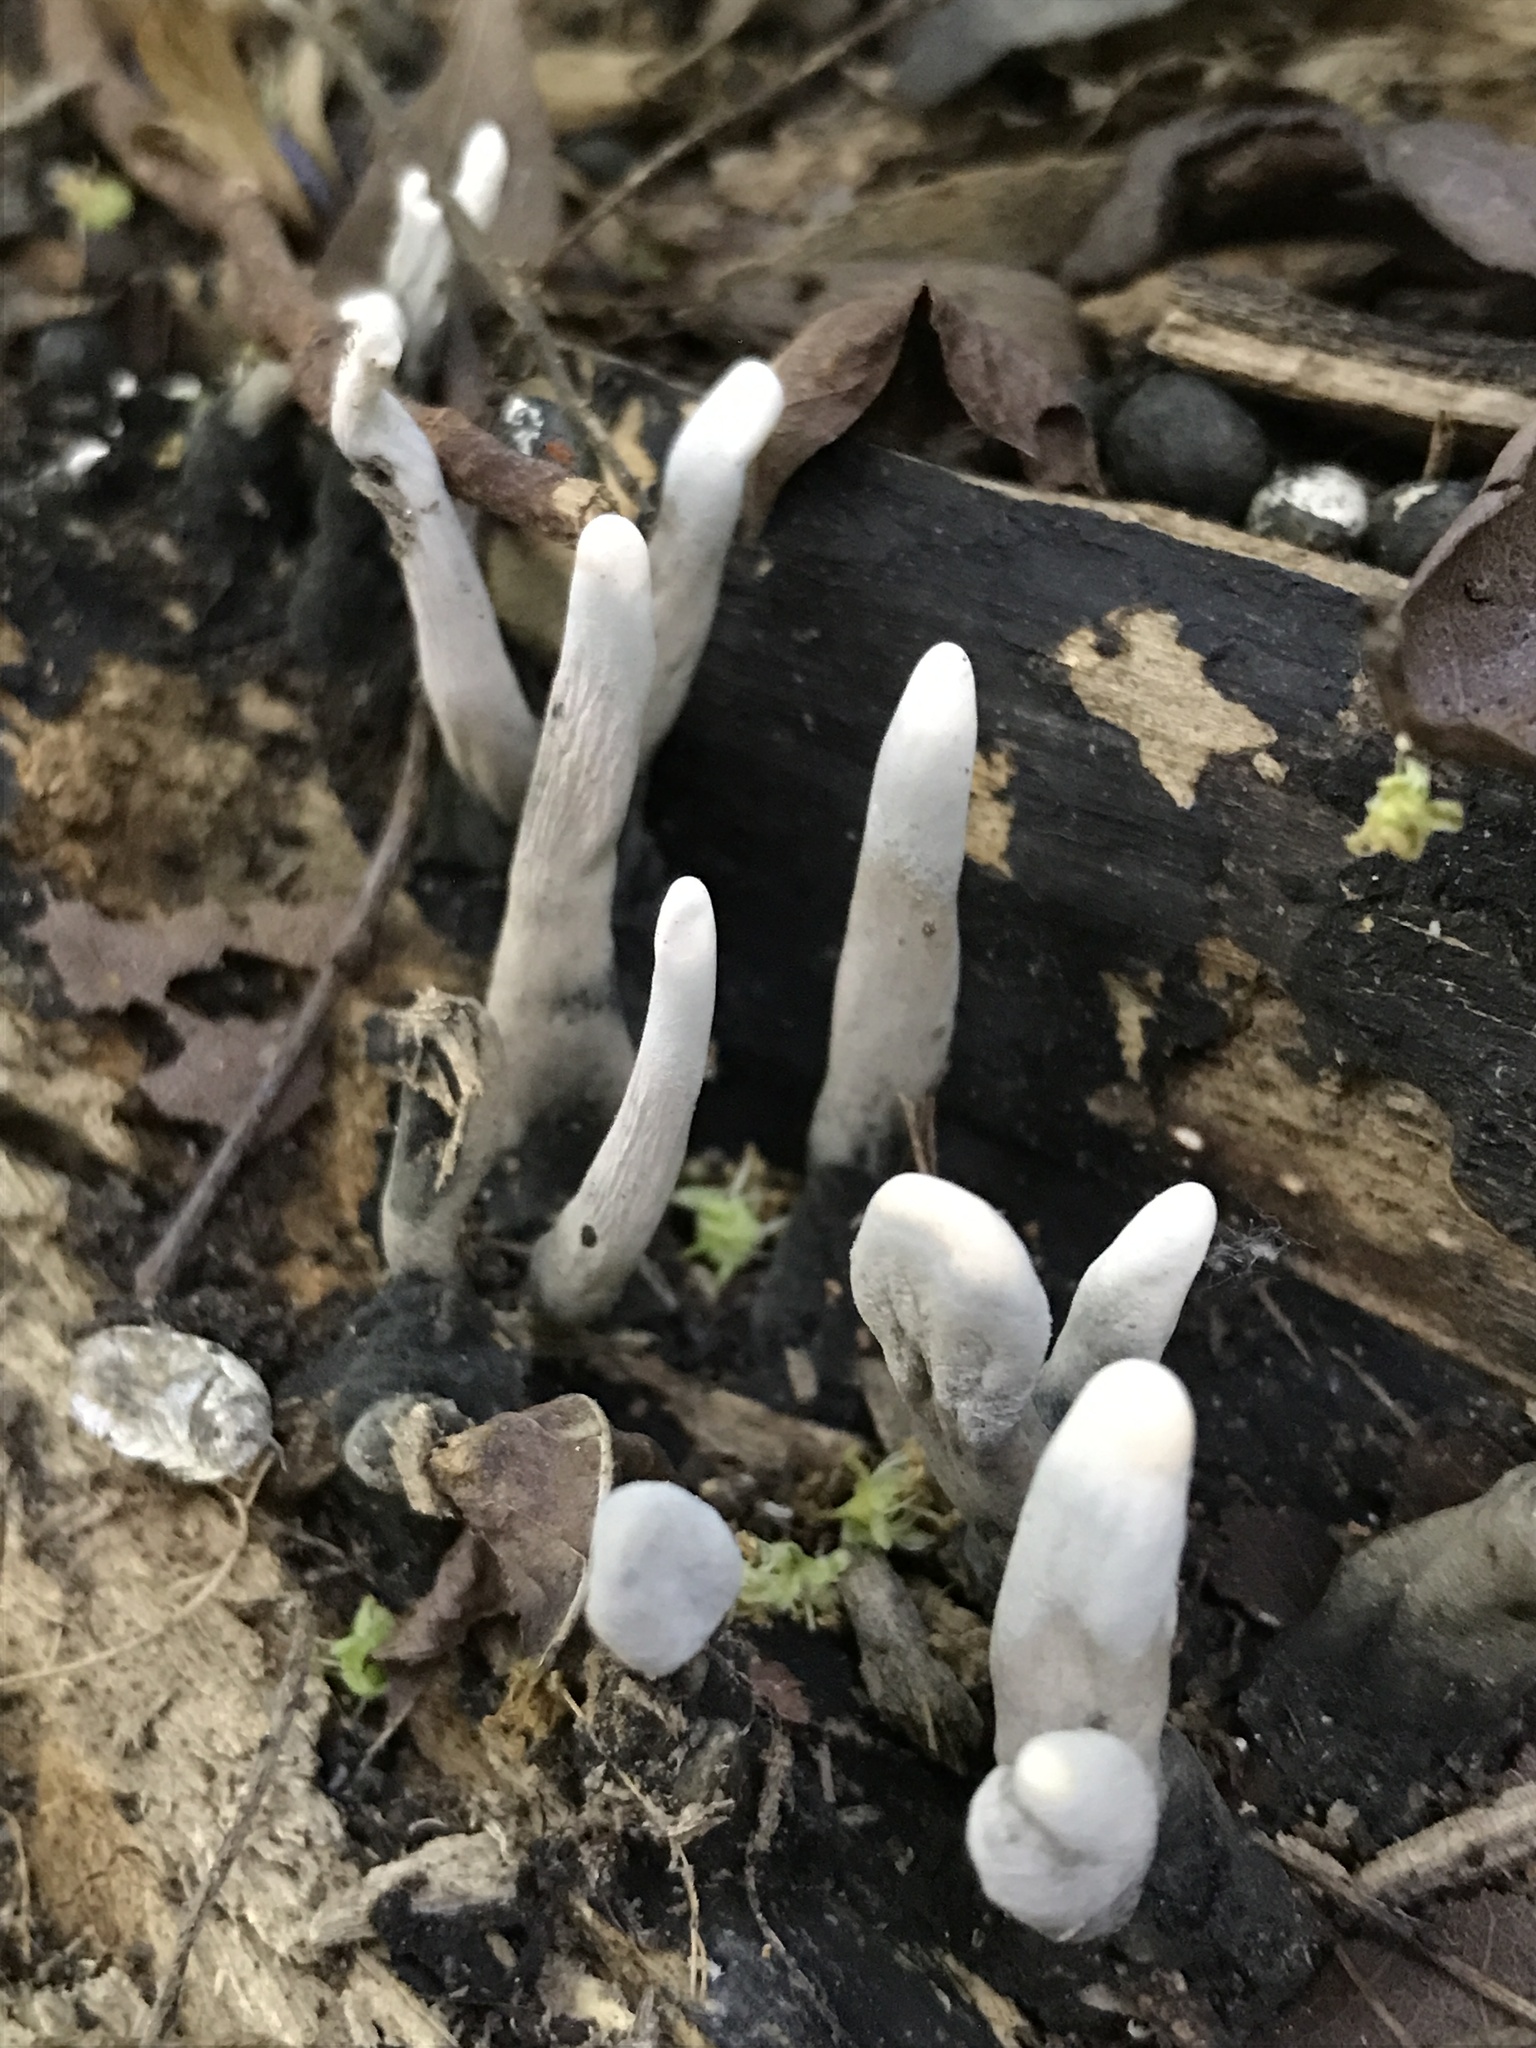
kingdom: Fungi
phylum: Ascomycota
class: Sordariomycetes
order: Xylariales
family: Xylariaceae
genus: Xylaria
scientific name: Xylaria polymorpha
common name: Dead man's fingers
